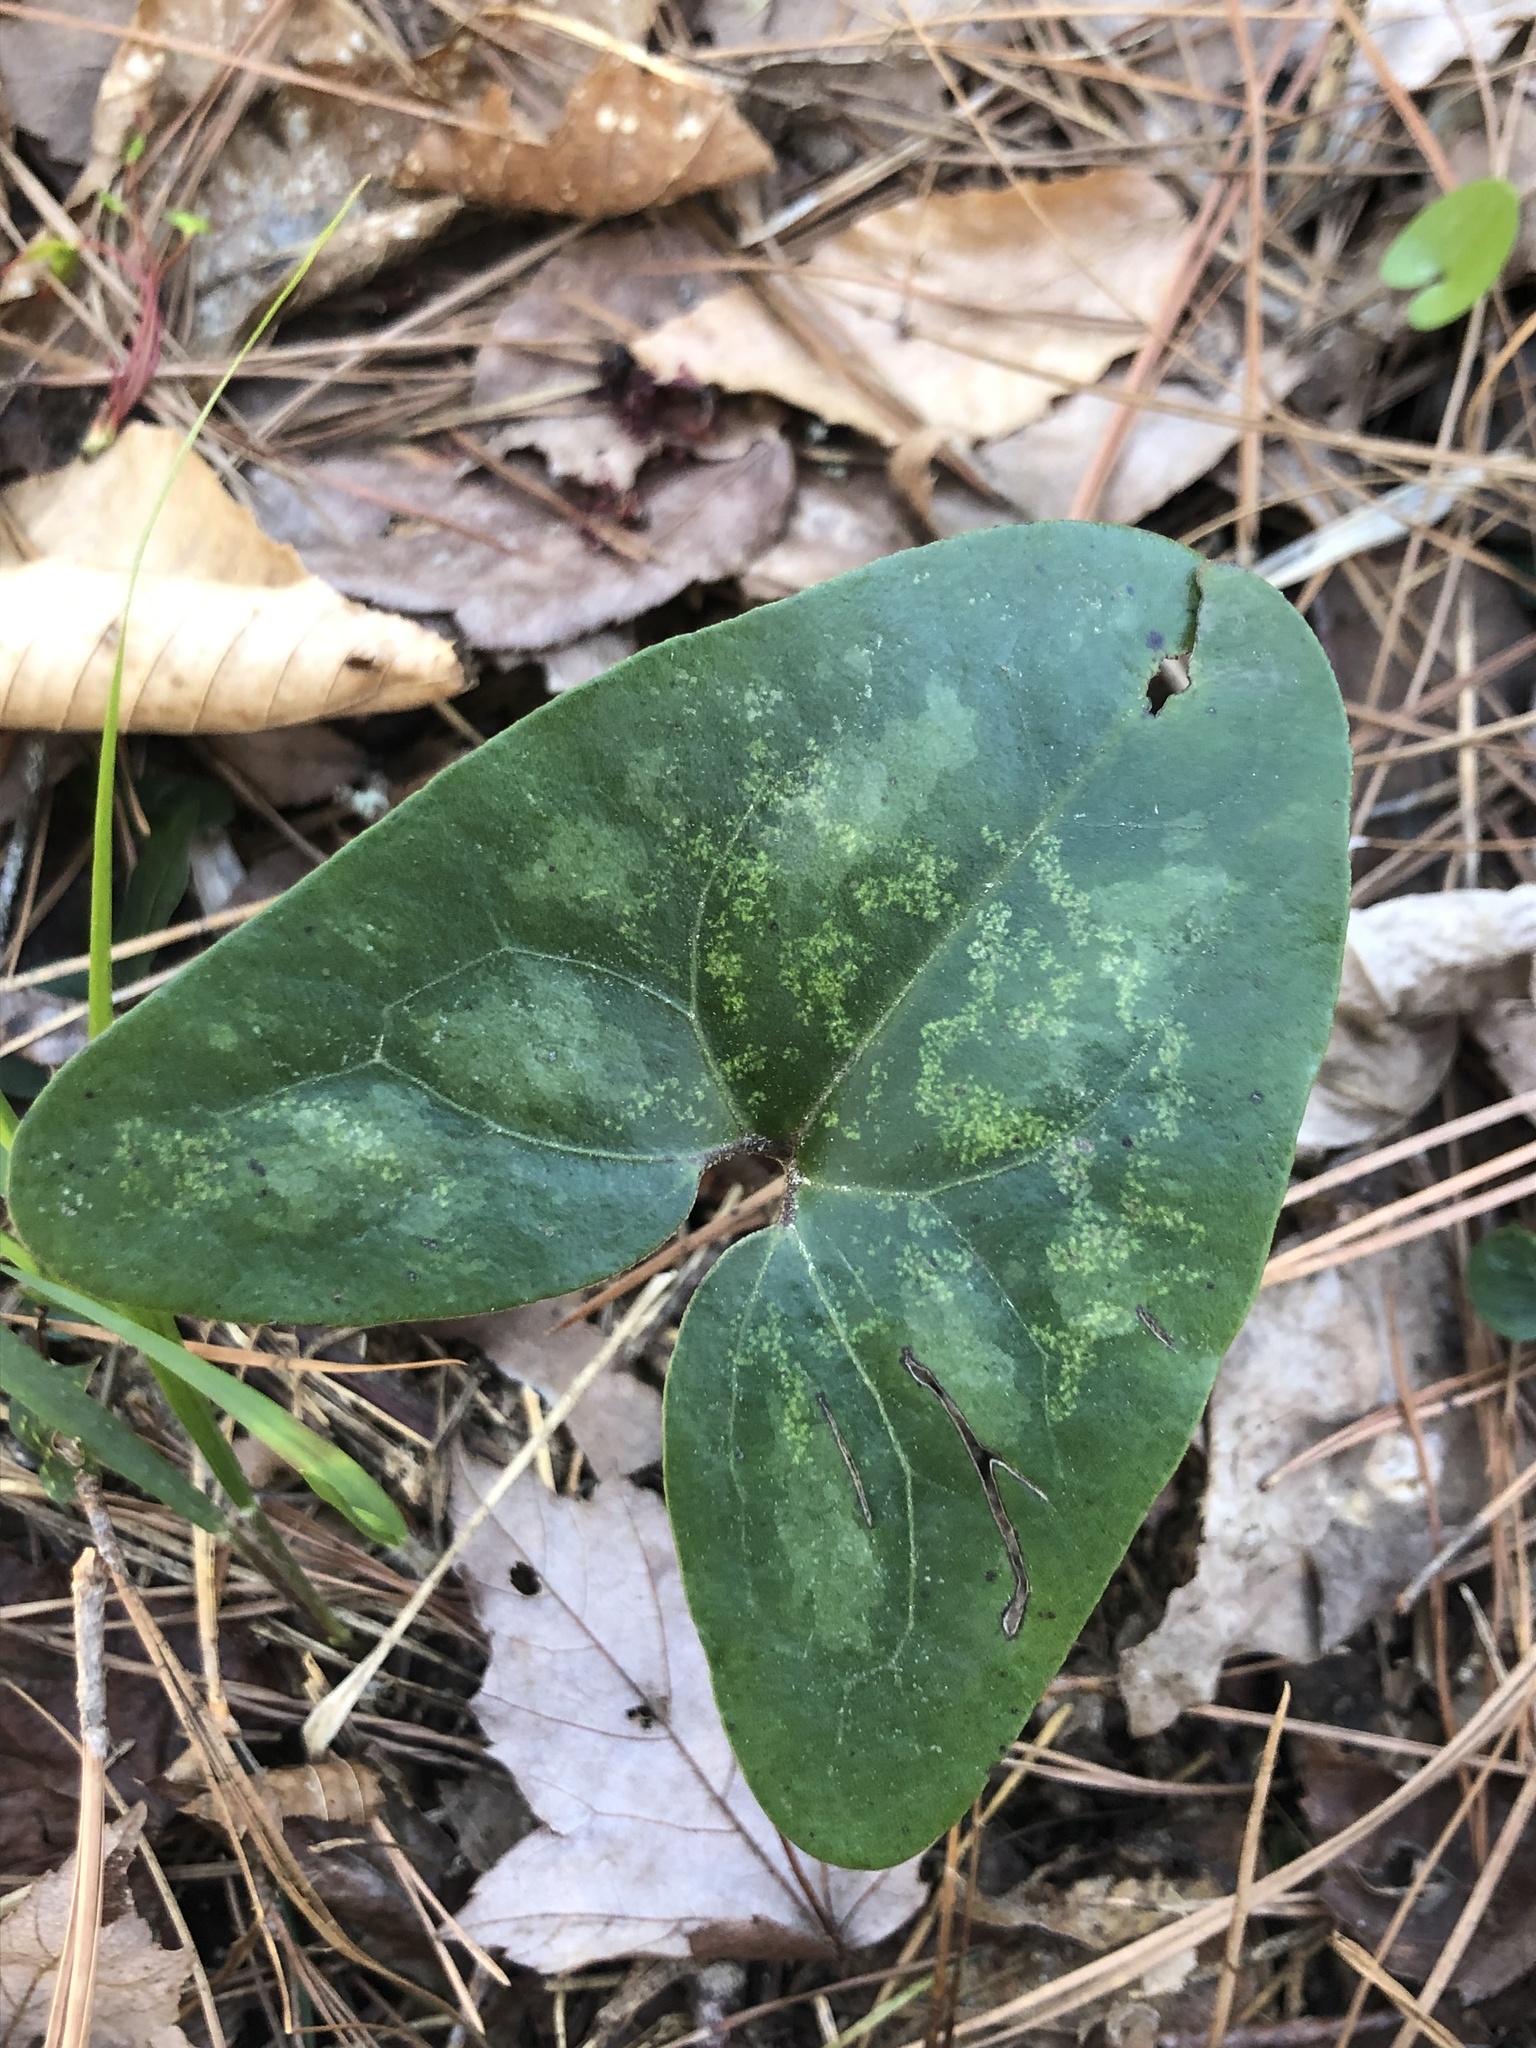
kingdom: Plantae
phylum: Tracheophyta
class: Magnoliopsida
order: Piperales
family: Aristolochiaceae
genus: Hexastylis
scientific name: Hexastylis arifolia
